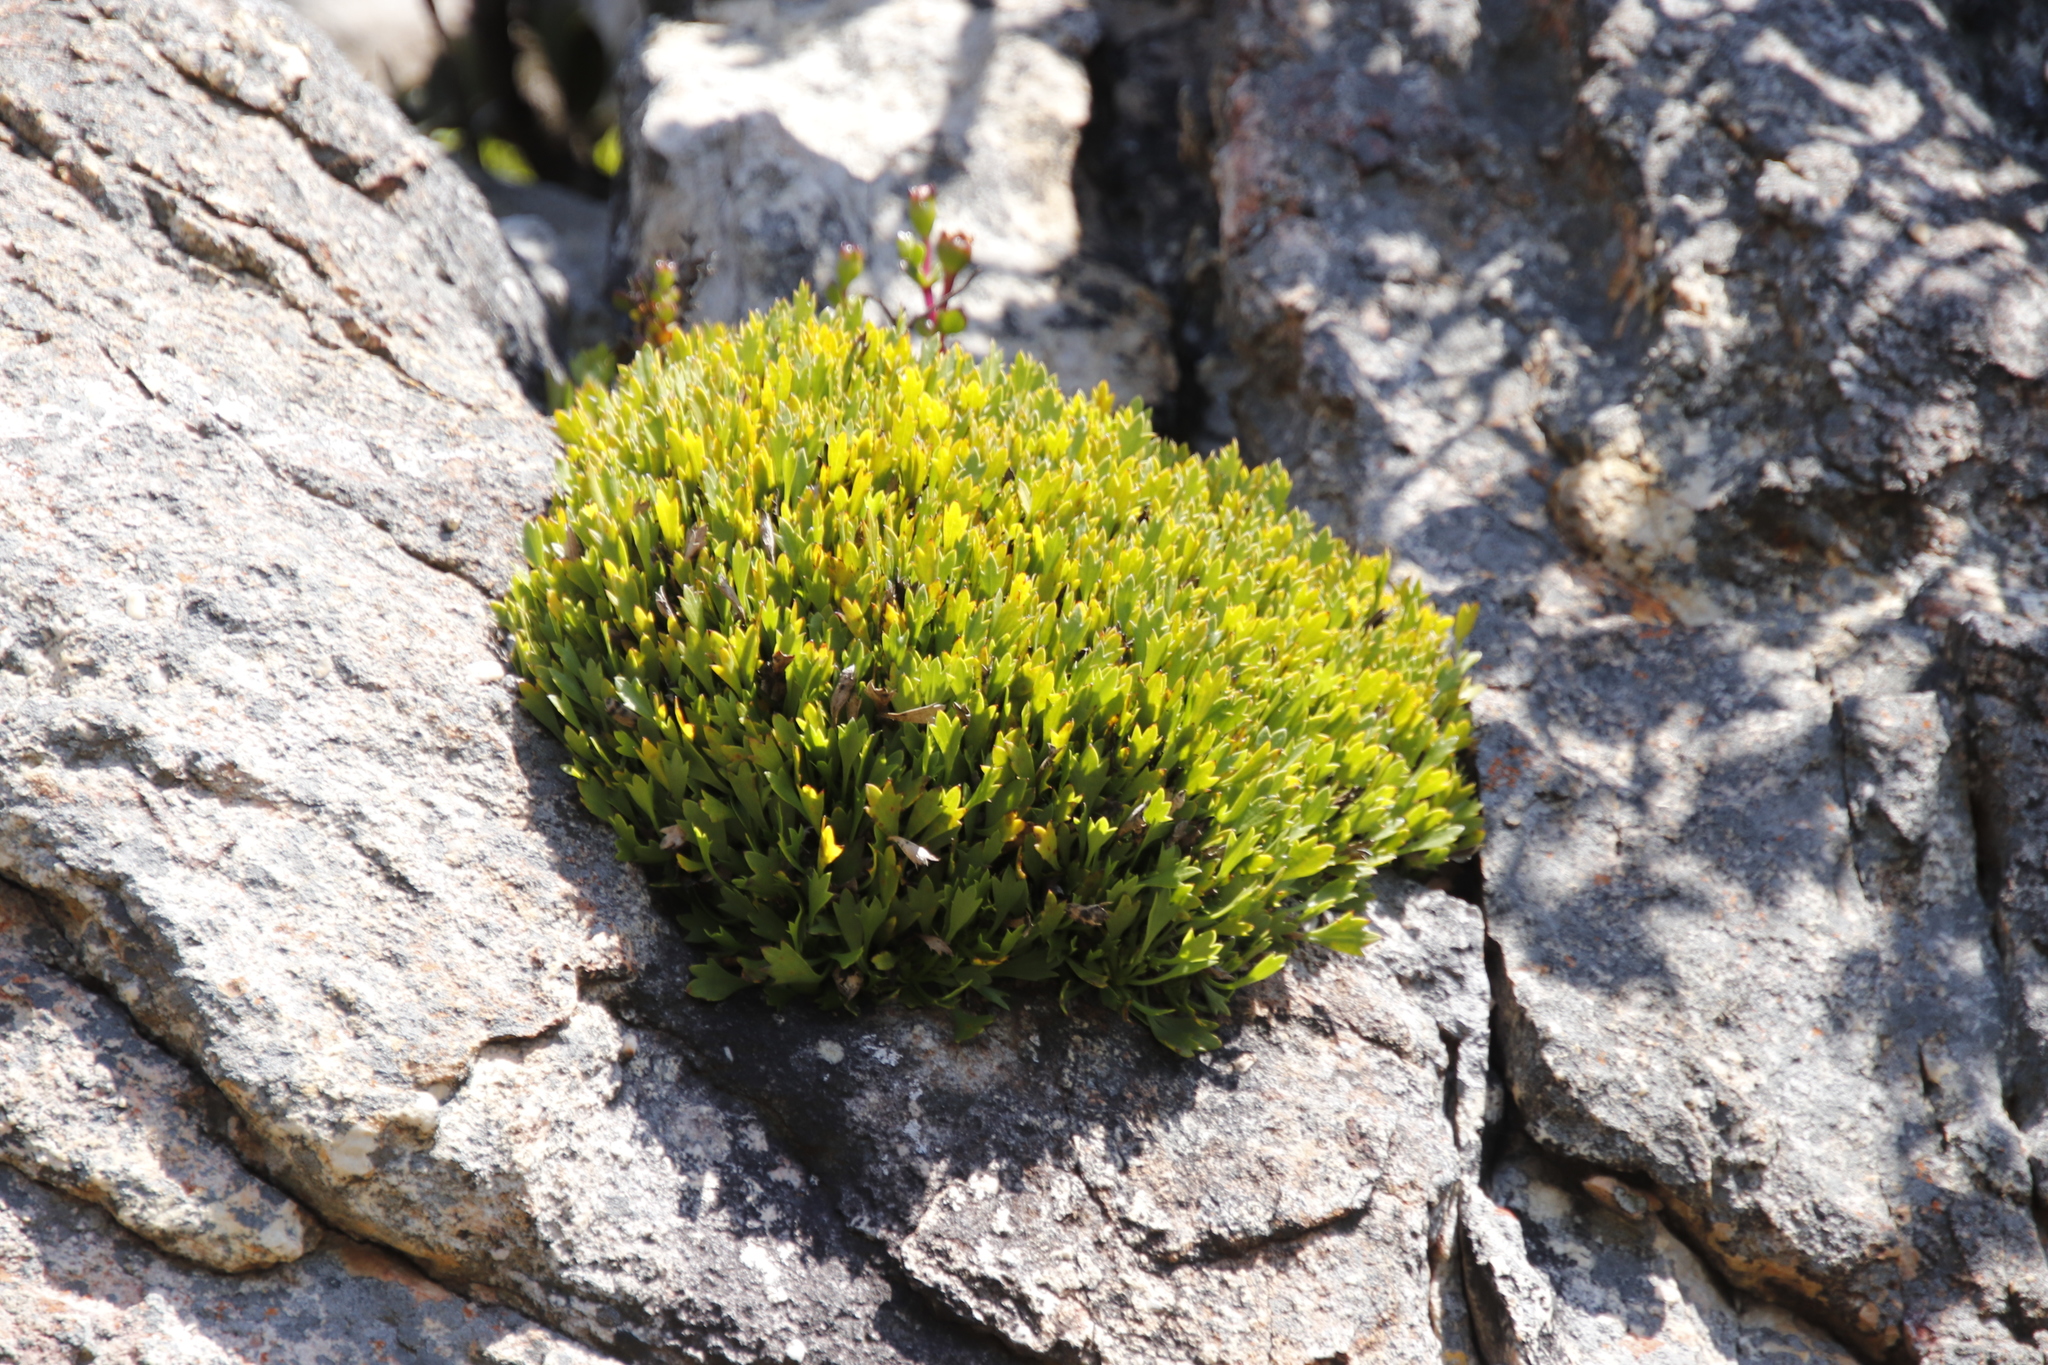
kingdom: Plantae
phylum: Tracheophyta
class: Magnoliopsida
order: Apiales
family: Apiaceae
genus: Centella
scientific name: Centella triloba
